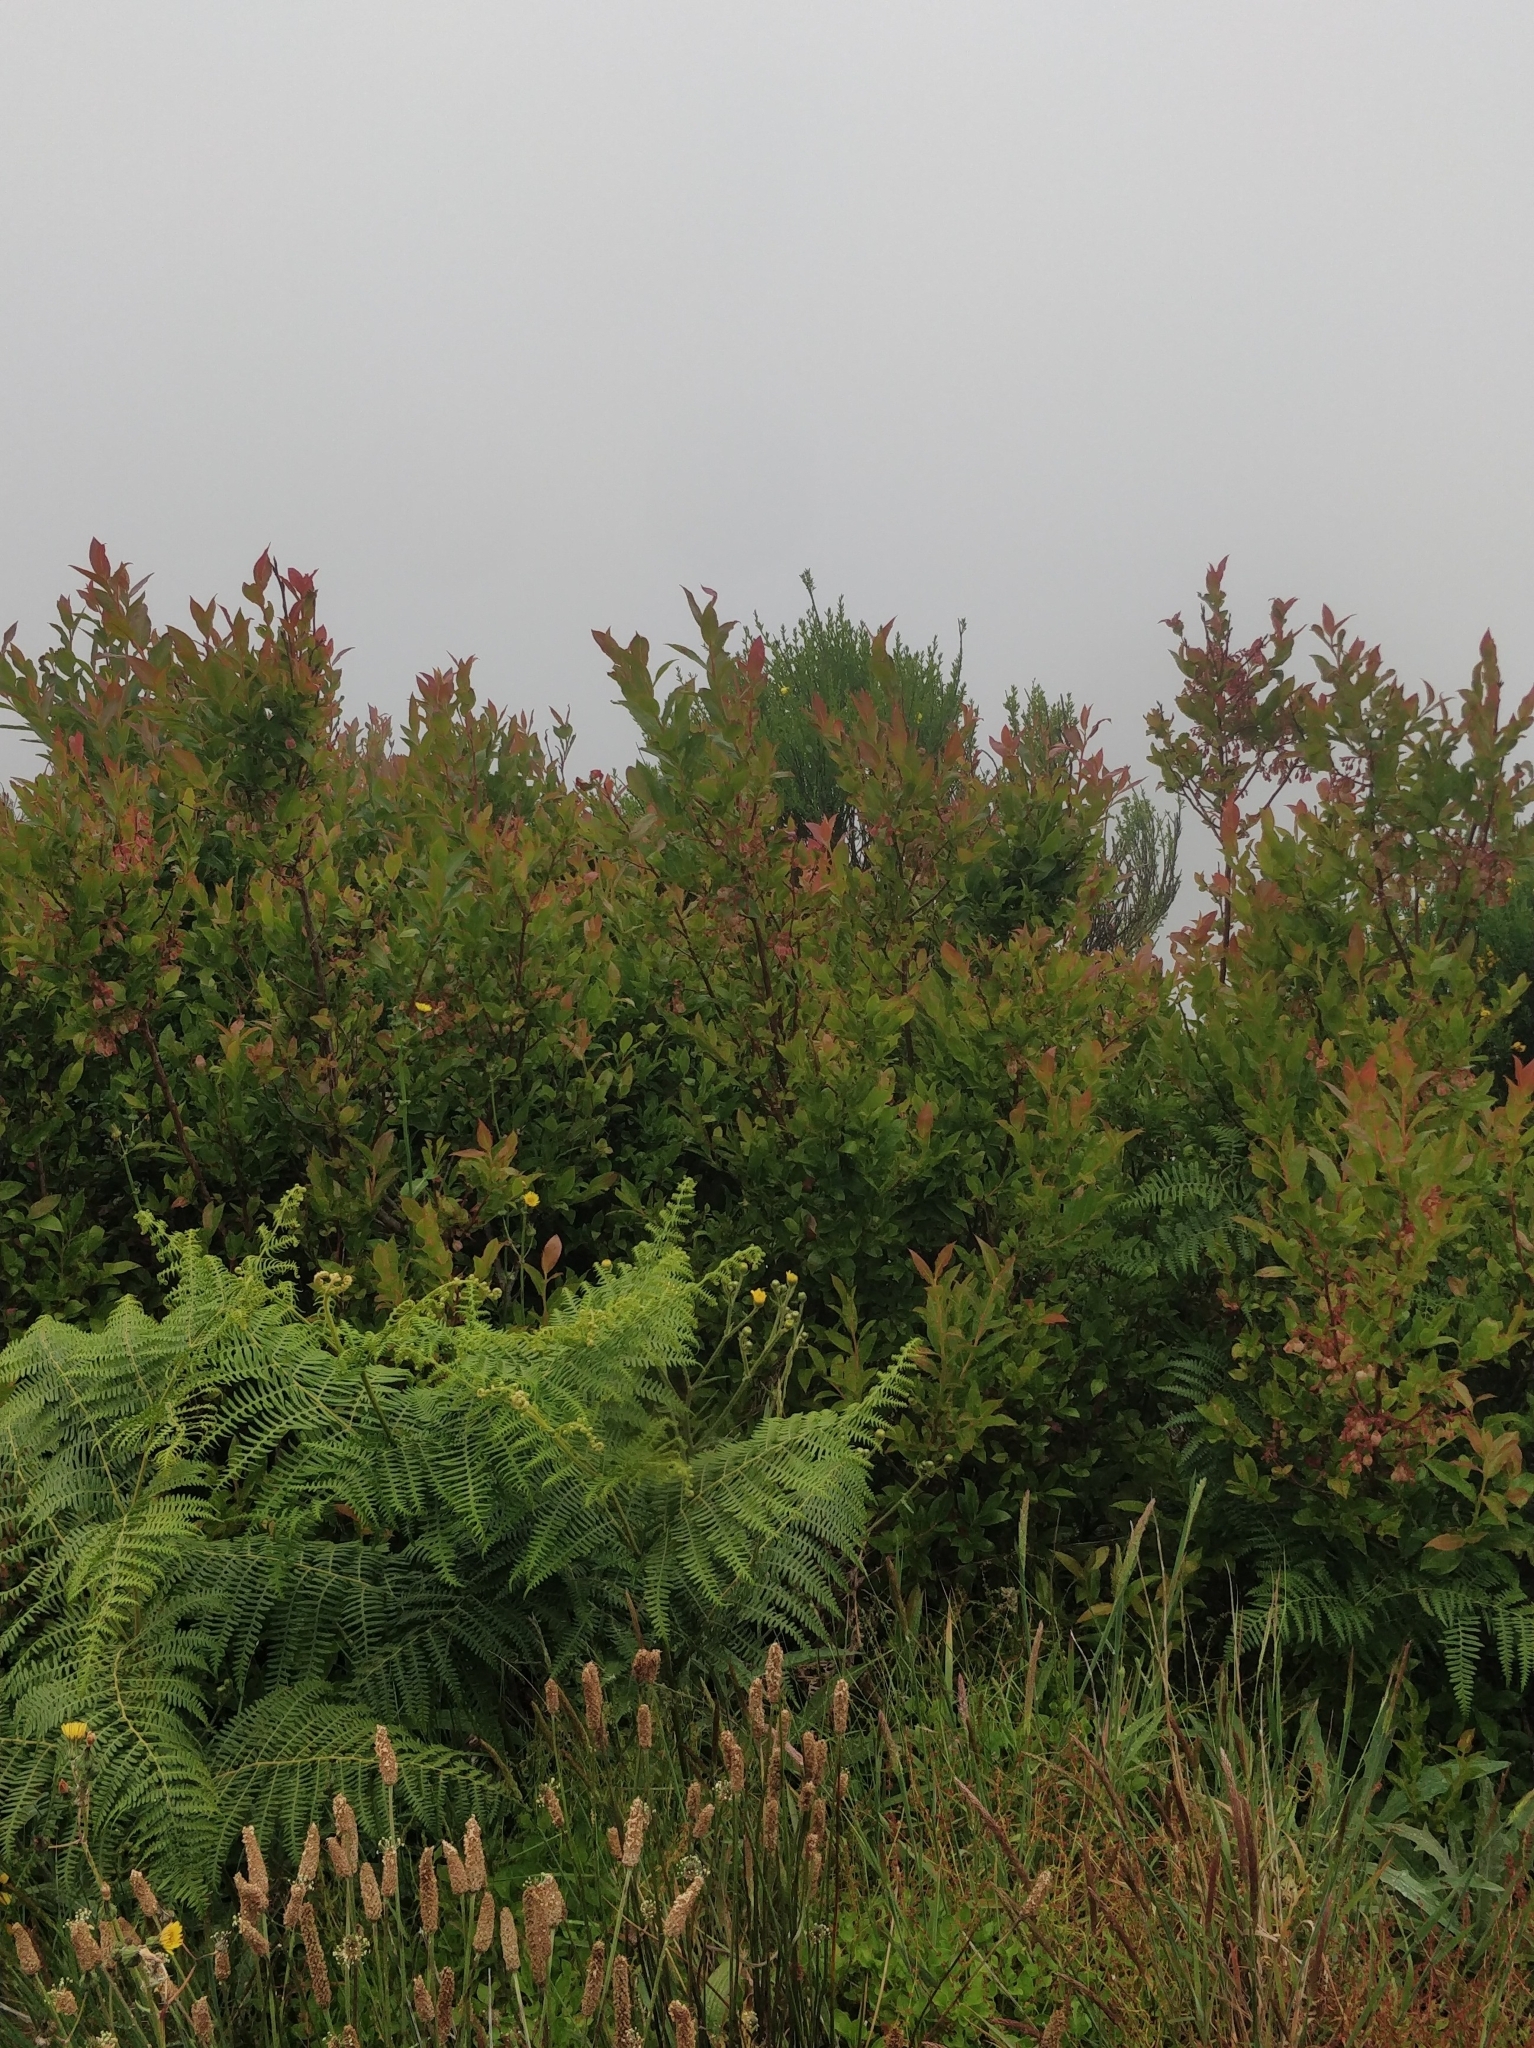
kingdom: Plantae
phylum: Tracheophyta
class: Magnoliopsida
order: Ericales
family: Ericaceae
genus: Vaccinium
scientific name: Vaccinium padifolium
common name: Madeiran blueberry
